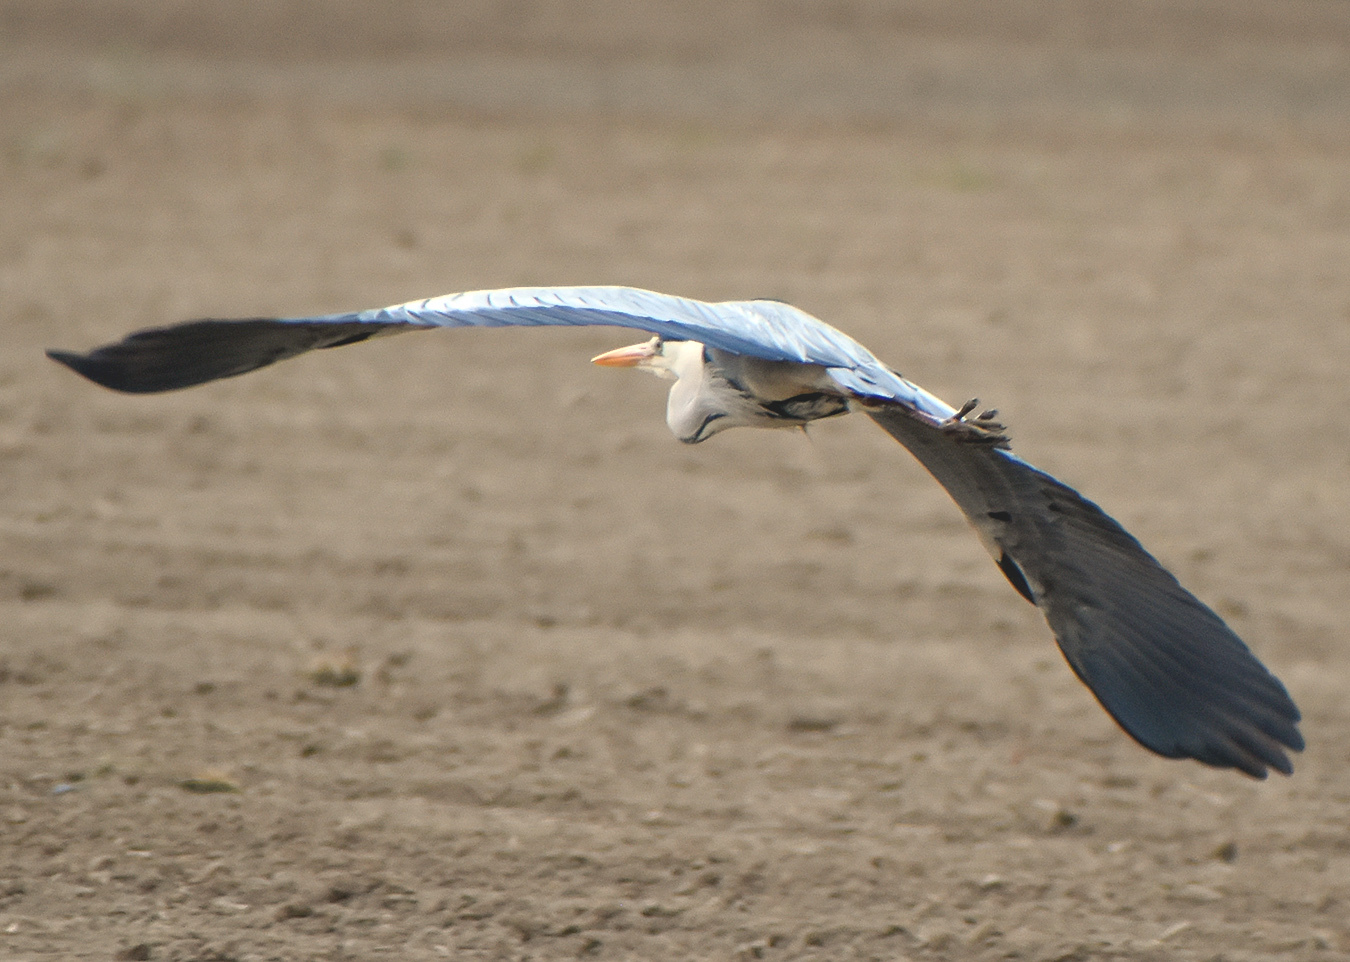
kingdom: Animalia
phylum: Chordata
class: Aves
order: Pelecaniformes
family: Ardeidae
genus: Ardea
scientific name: Ardea cinerea
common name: Grey heron
